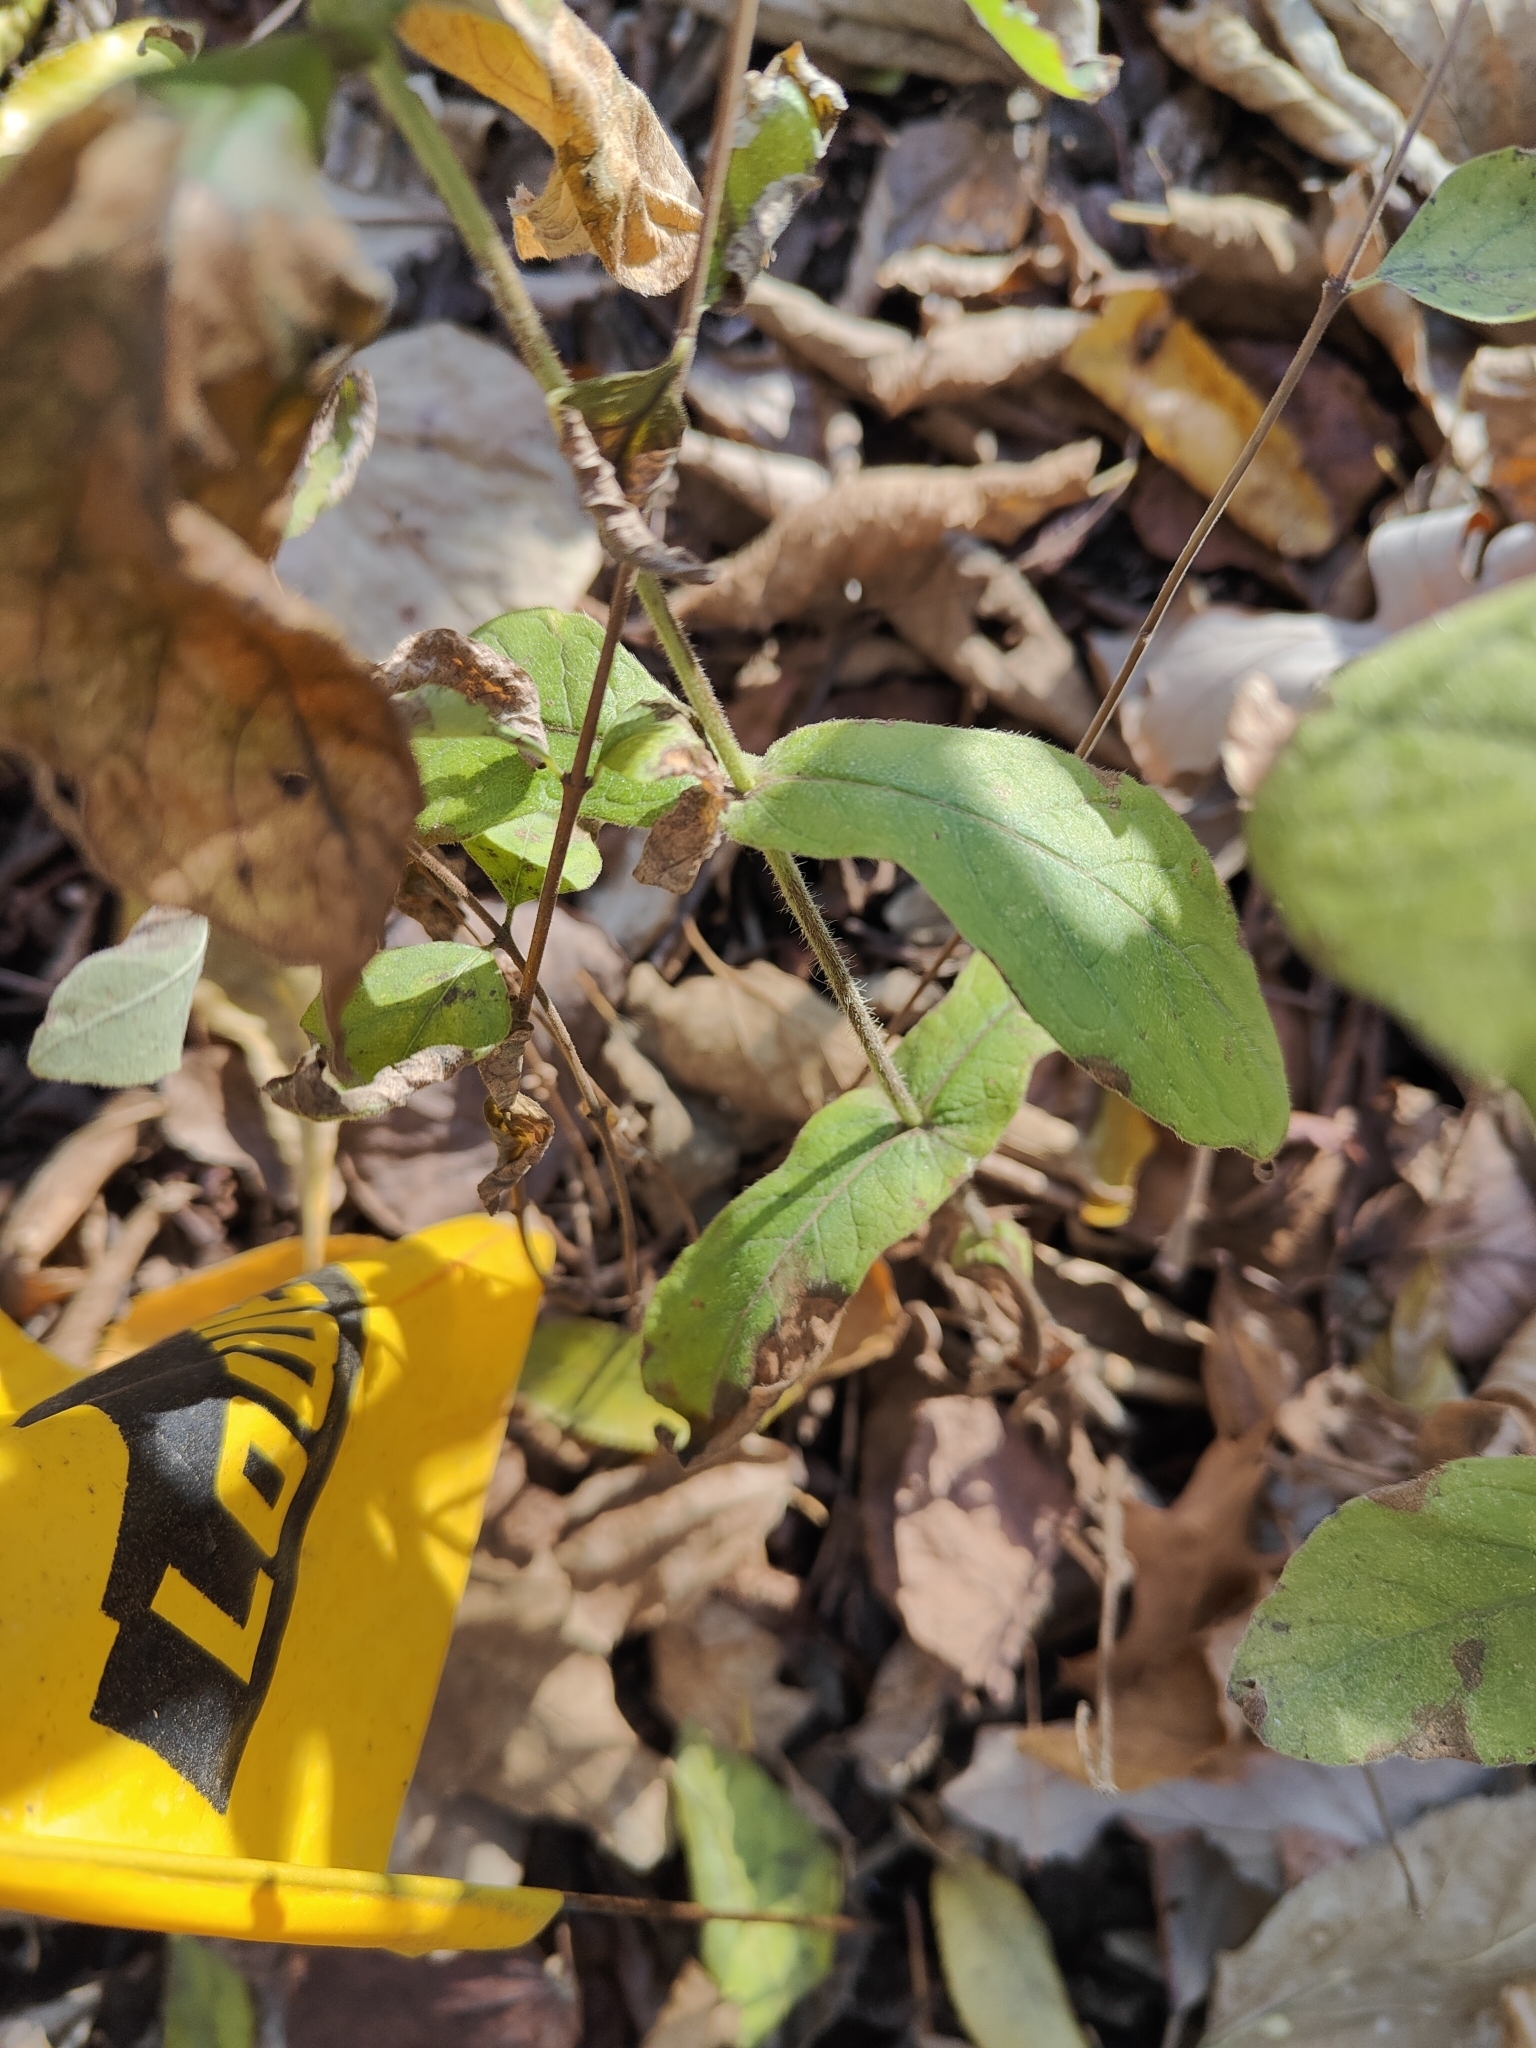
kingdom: Plantae
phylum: Tracheophyta
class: Magnoliopsida
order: Dipsacales
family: Caprifoliaceae
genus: Triosteum
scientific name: Triosteum perfoliatum
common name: Common horse-gentian
